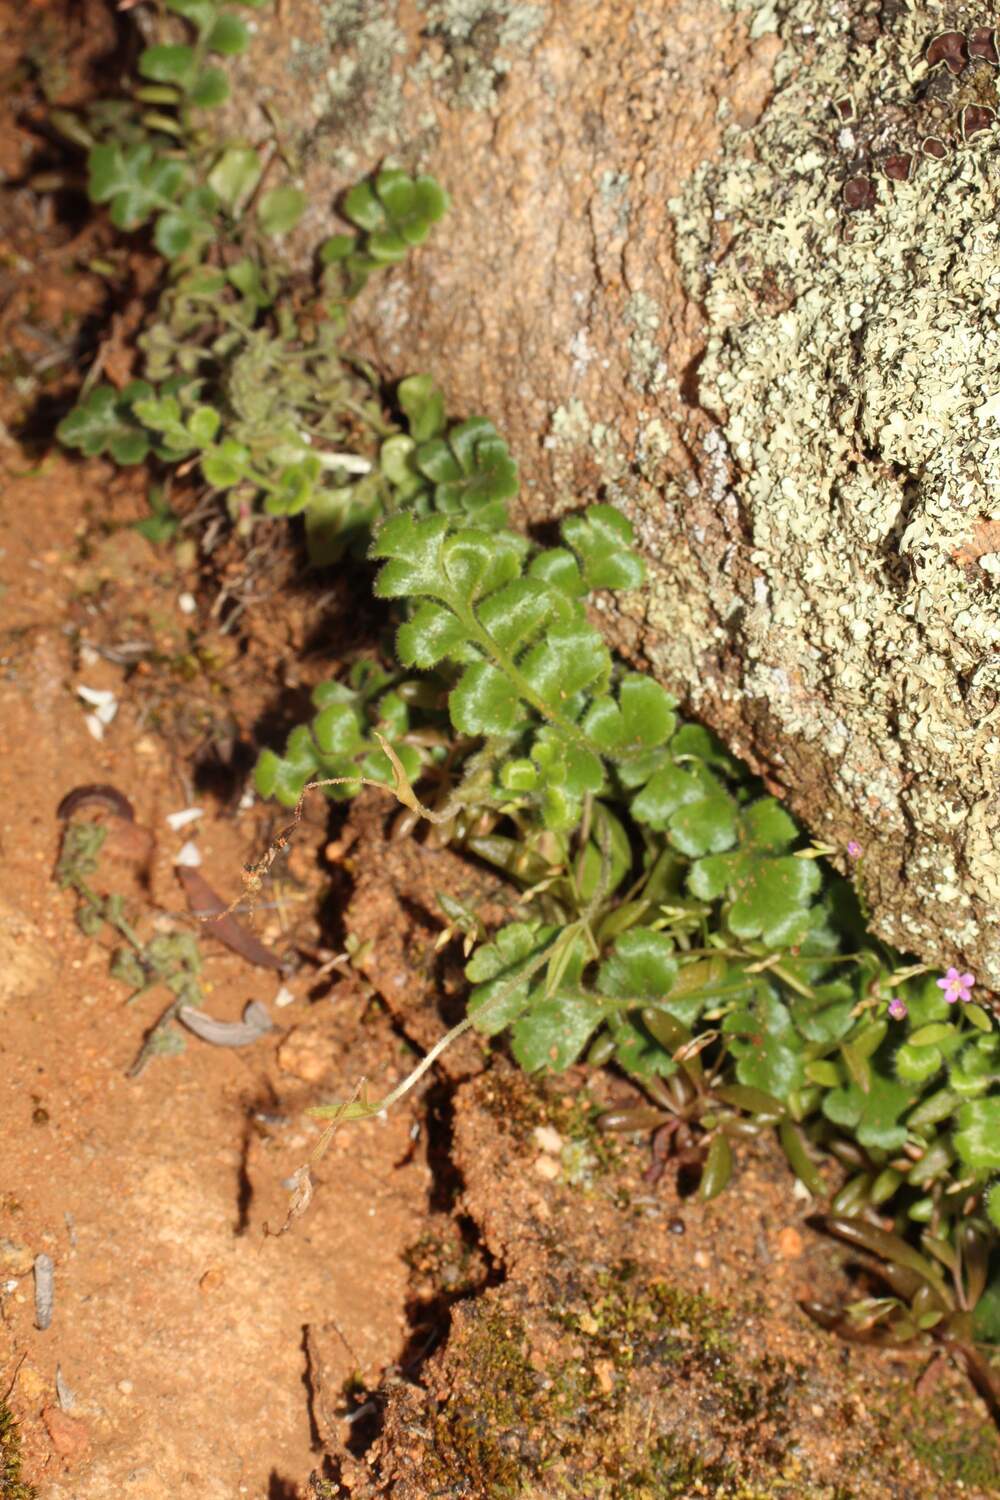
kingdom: Plantae
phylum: Tracheophyta
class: Polypodiopsida
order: Polypodiales
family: Aspleniaceae
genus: Asplenium
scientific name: Asplenium subglandulosum
